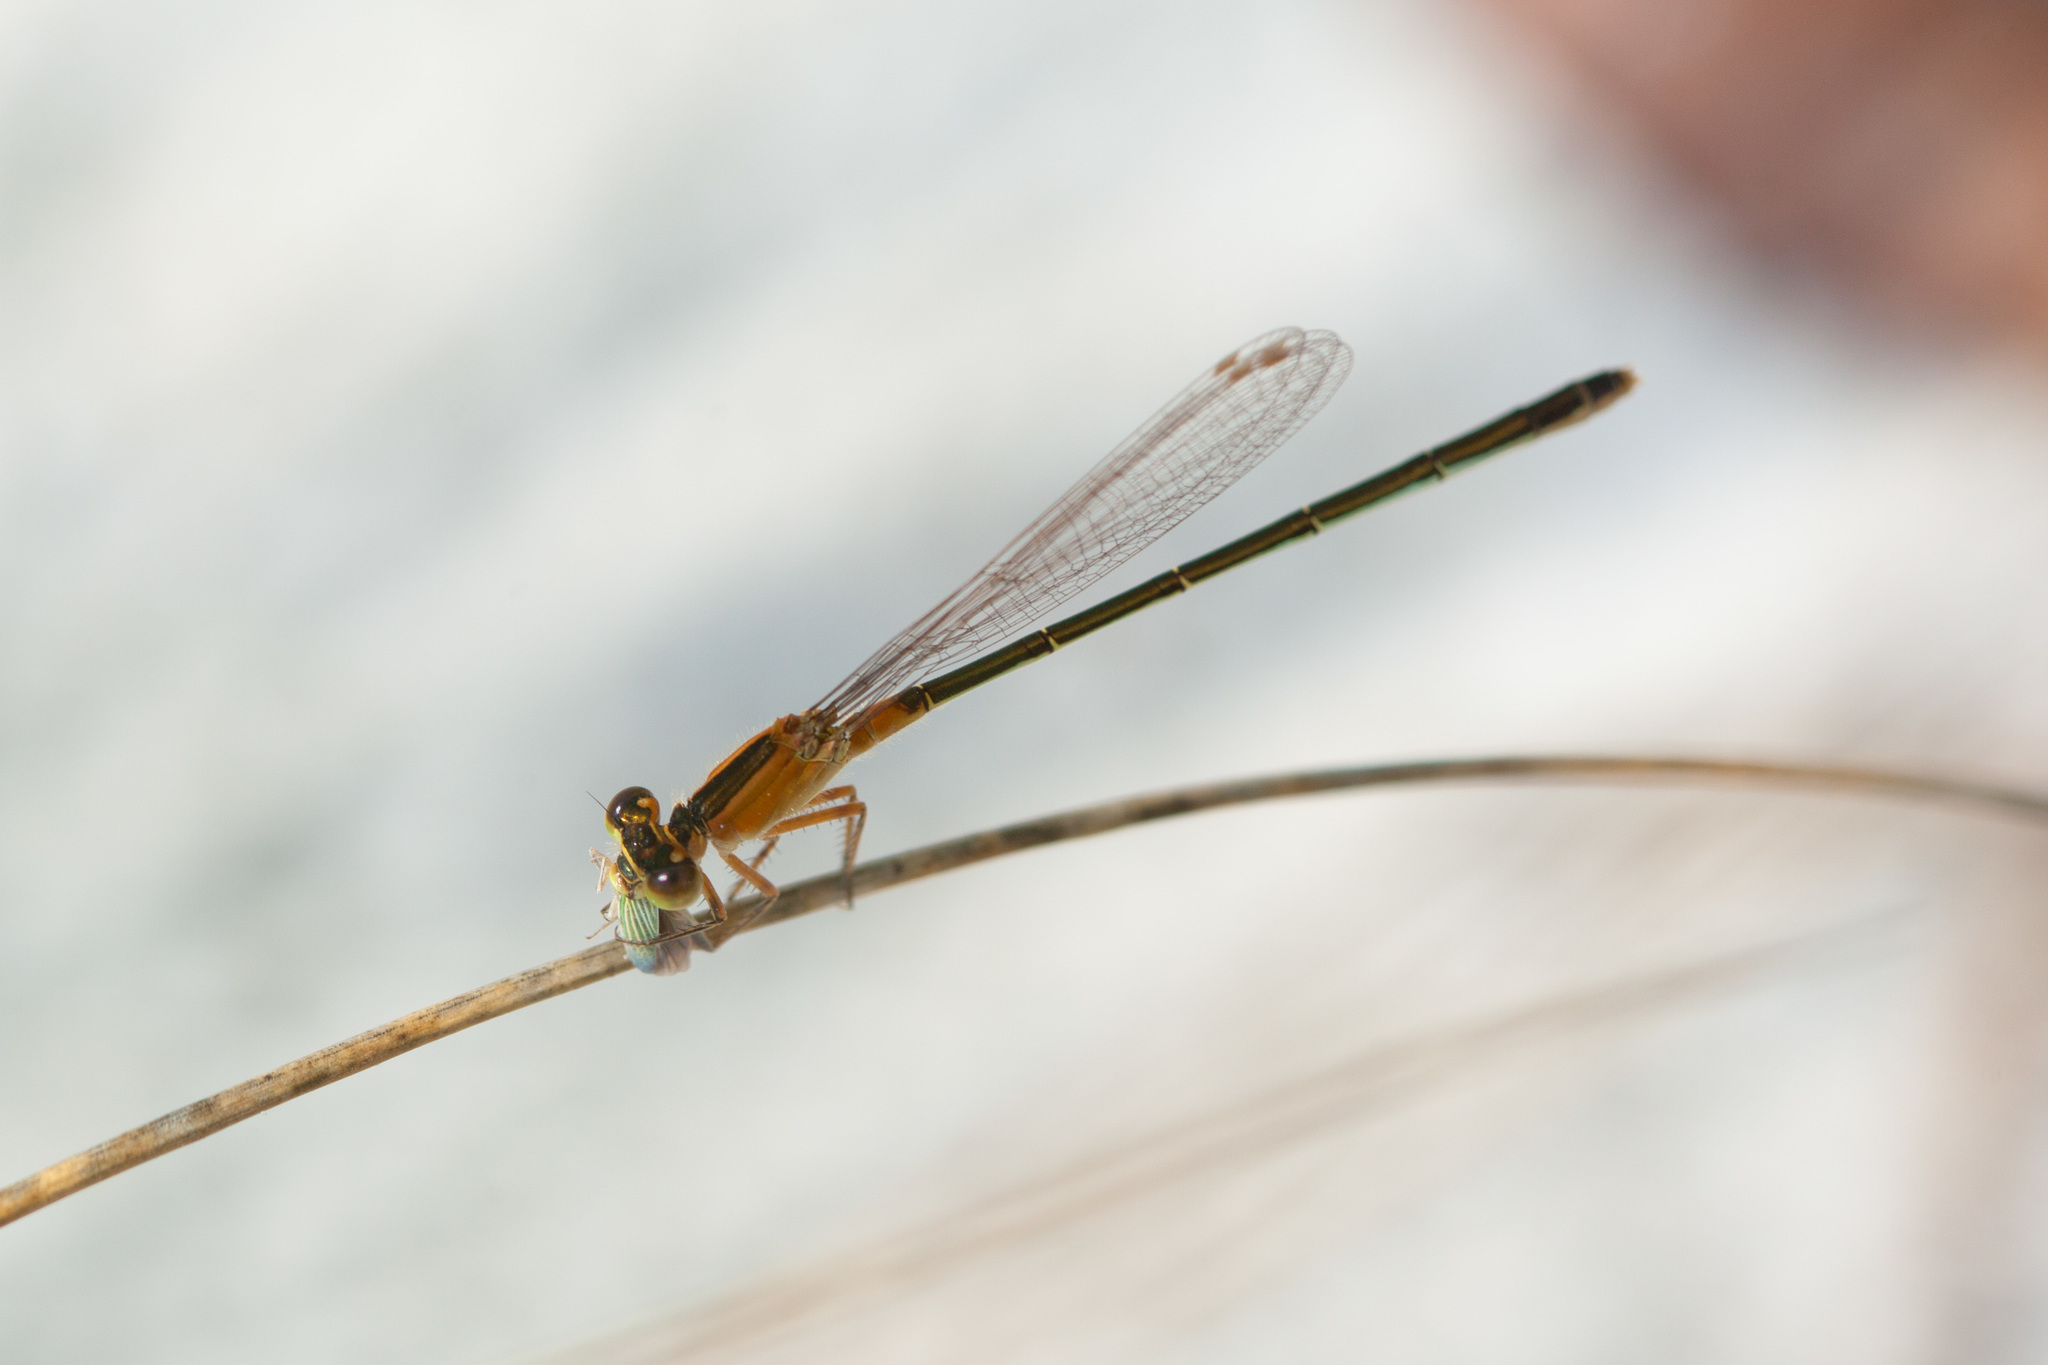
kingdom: Animalia
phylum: Arthropoda
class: Insecta
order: Odonata
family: Coenagrionidae
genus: Ischnura
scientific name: Ischnura ramburii
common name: Rambur's forktail
